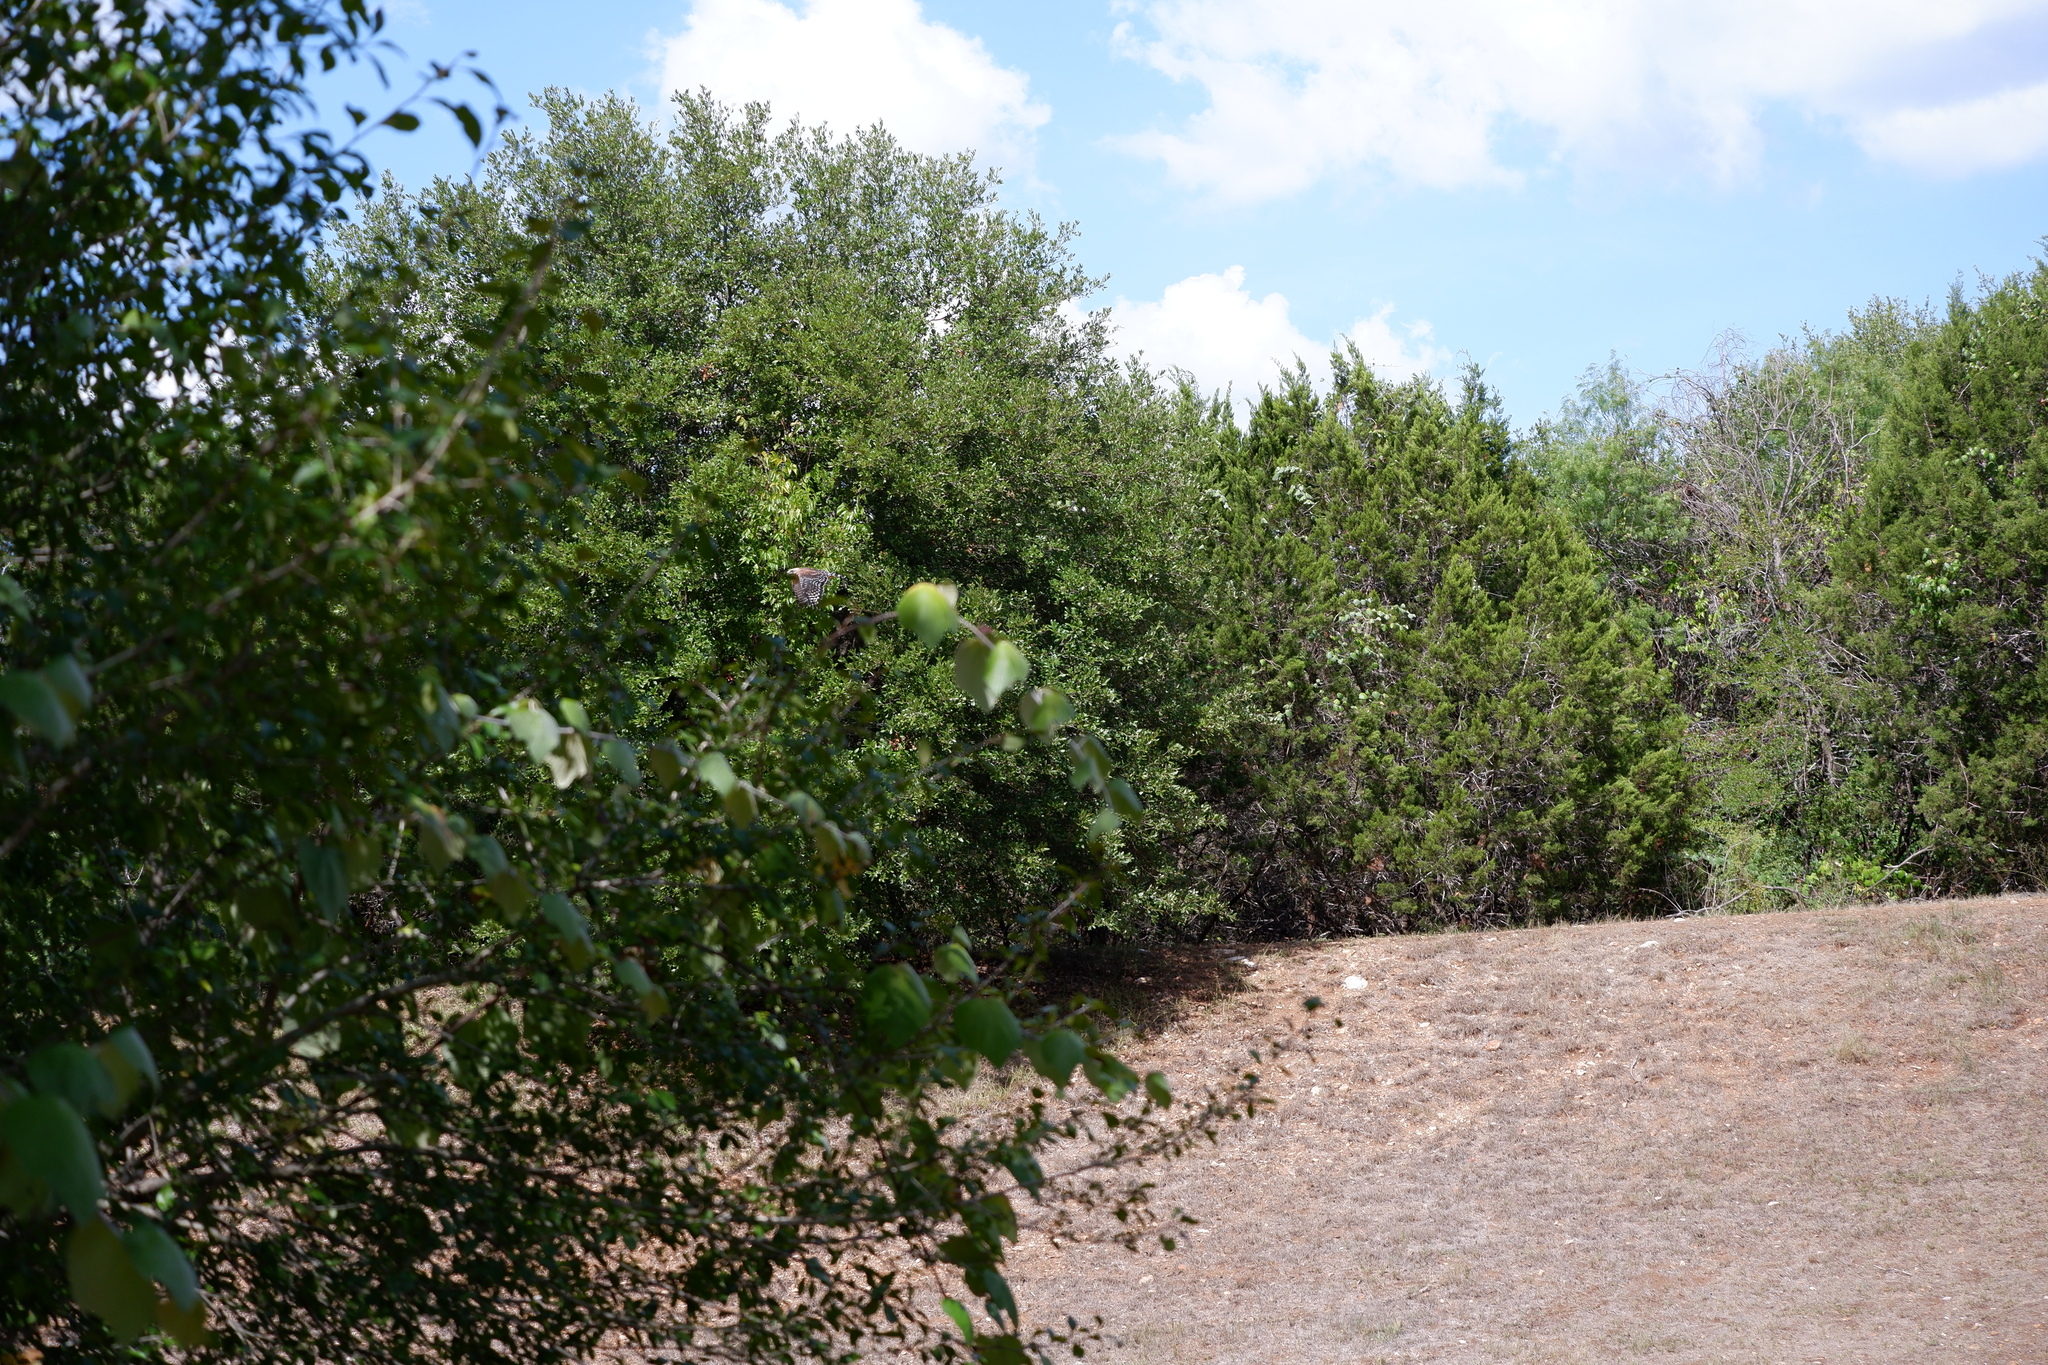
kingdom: Animalia
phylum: Chordata
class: Aves
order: Accipitriformes
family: Accipitridae
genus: Buteo
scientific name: Buteo lineatus
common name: Red-shouldered hawk
